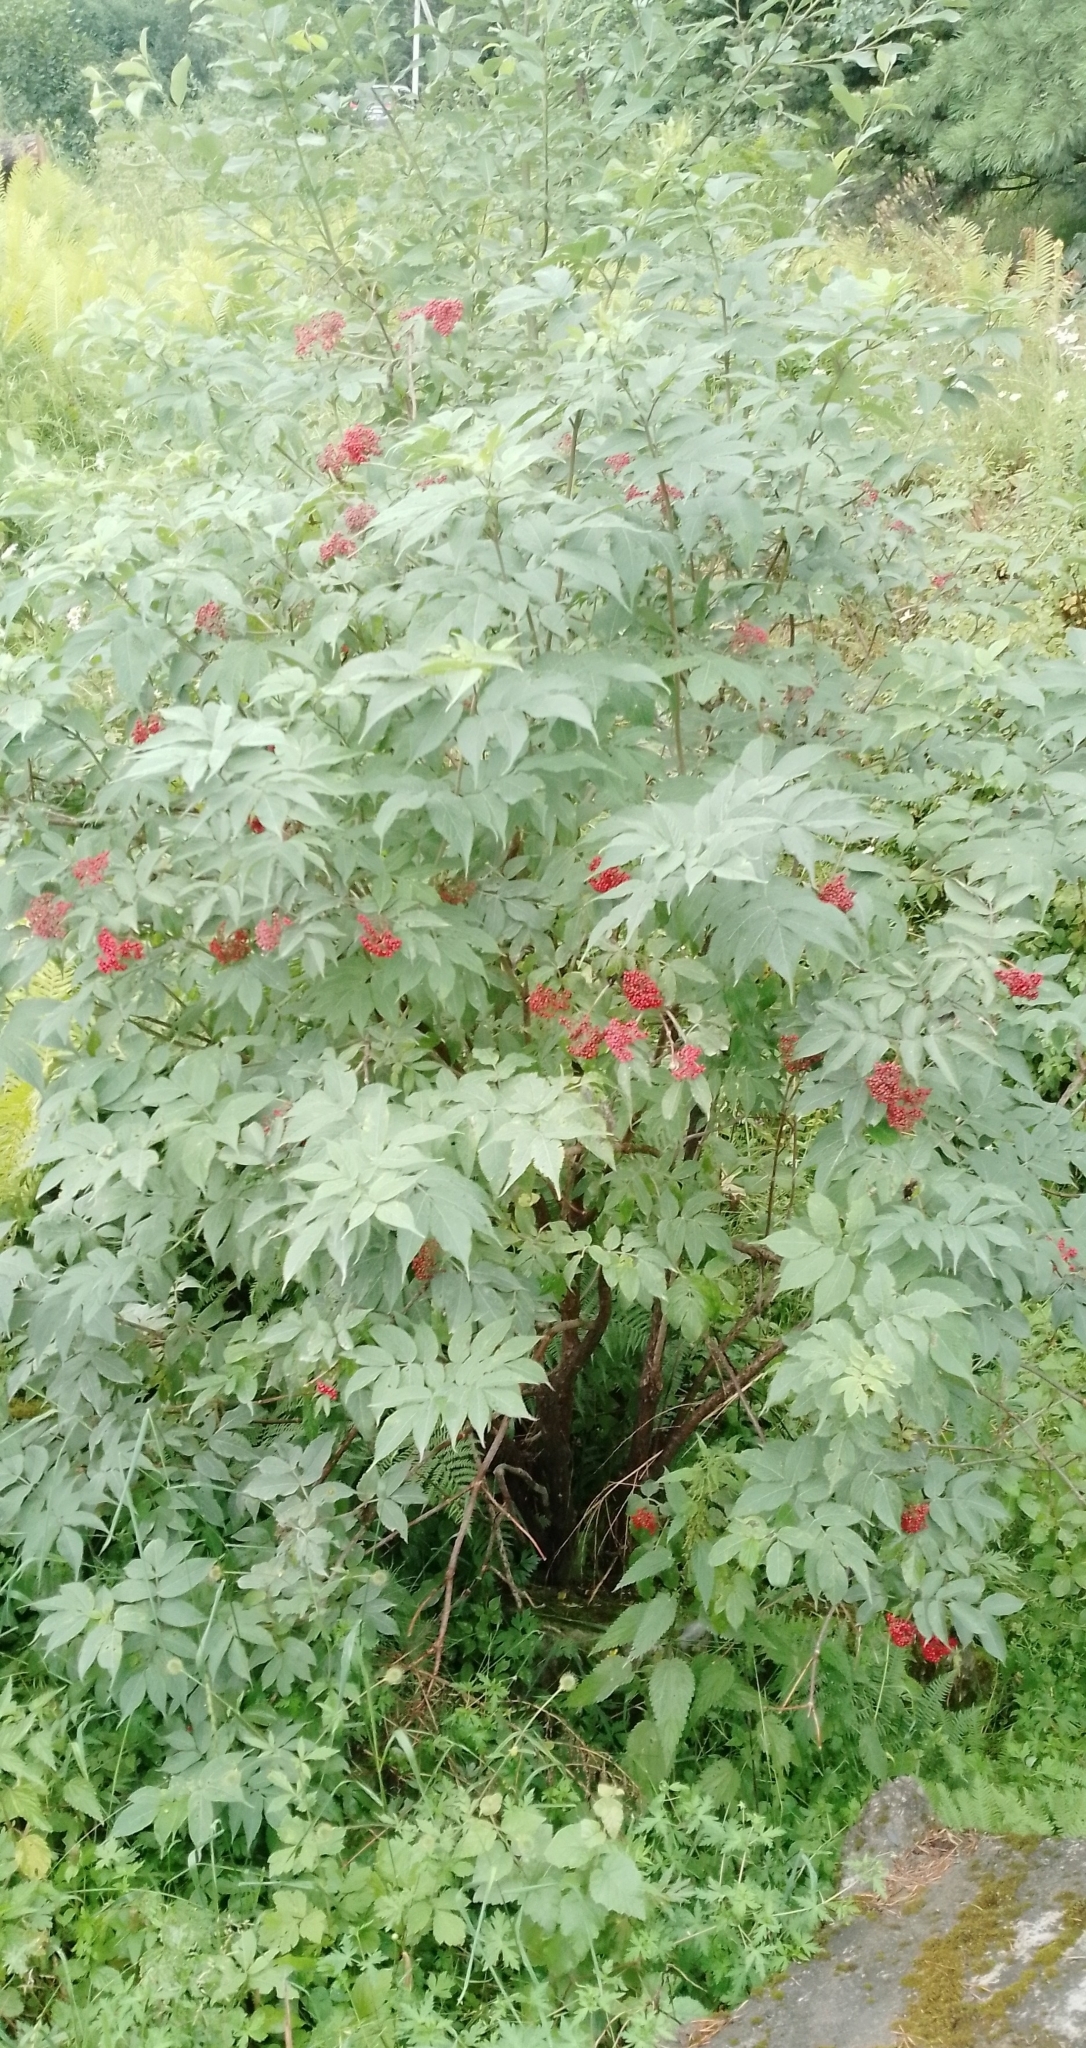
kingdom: Plantae
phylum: Tracheophyta
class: Magnoliopsida
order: Dipsacales
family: Viburnaceae
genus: Sambucus
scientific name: Sambucus sibirica
